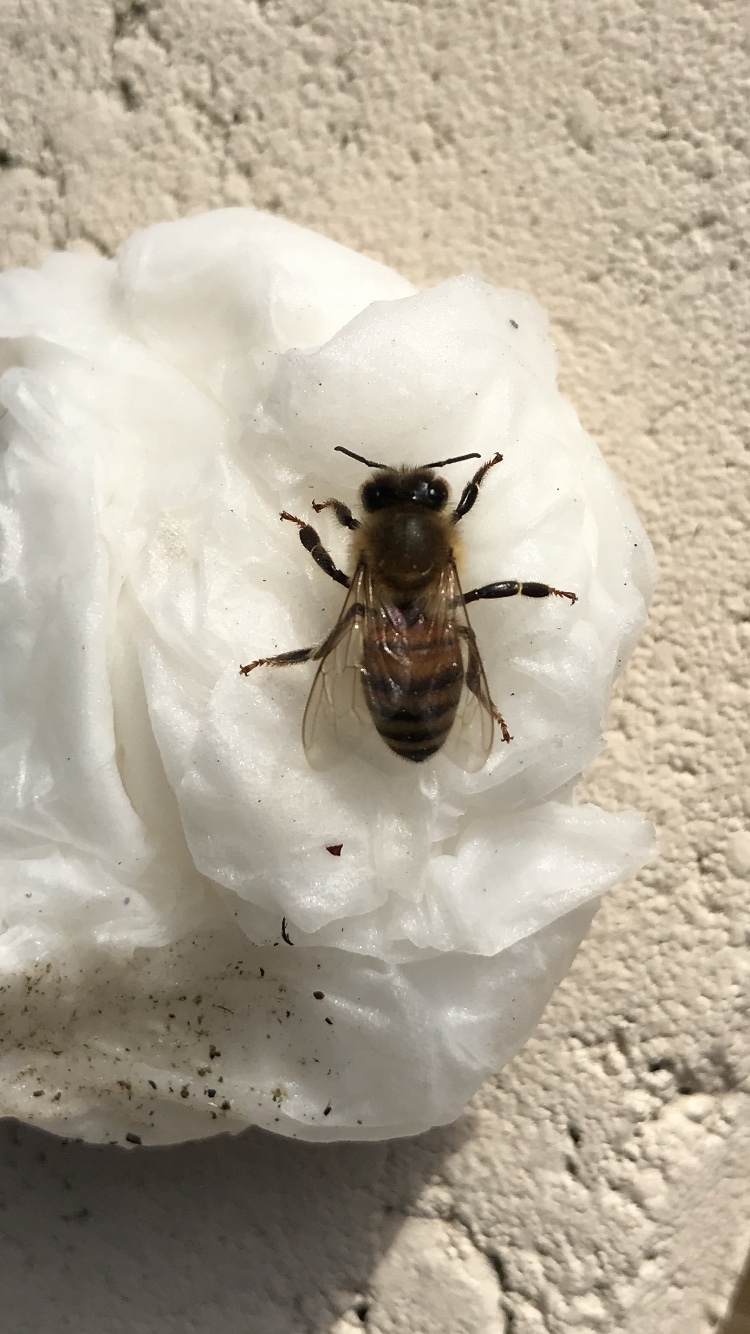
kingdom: Animalia
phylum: Arthropoda
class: Insecta
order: Hymenoptera
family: Apidae
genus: Apis
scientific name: Apis mellifera
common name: Honey bee
